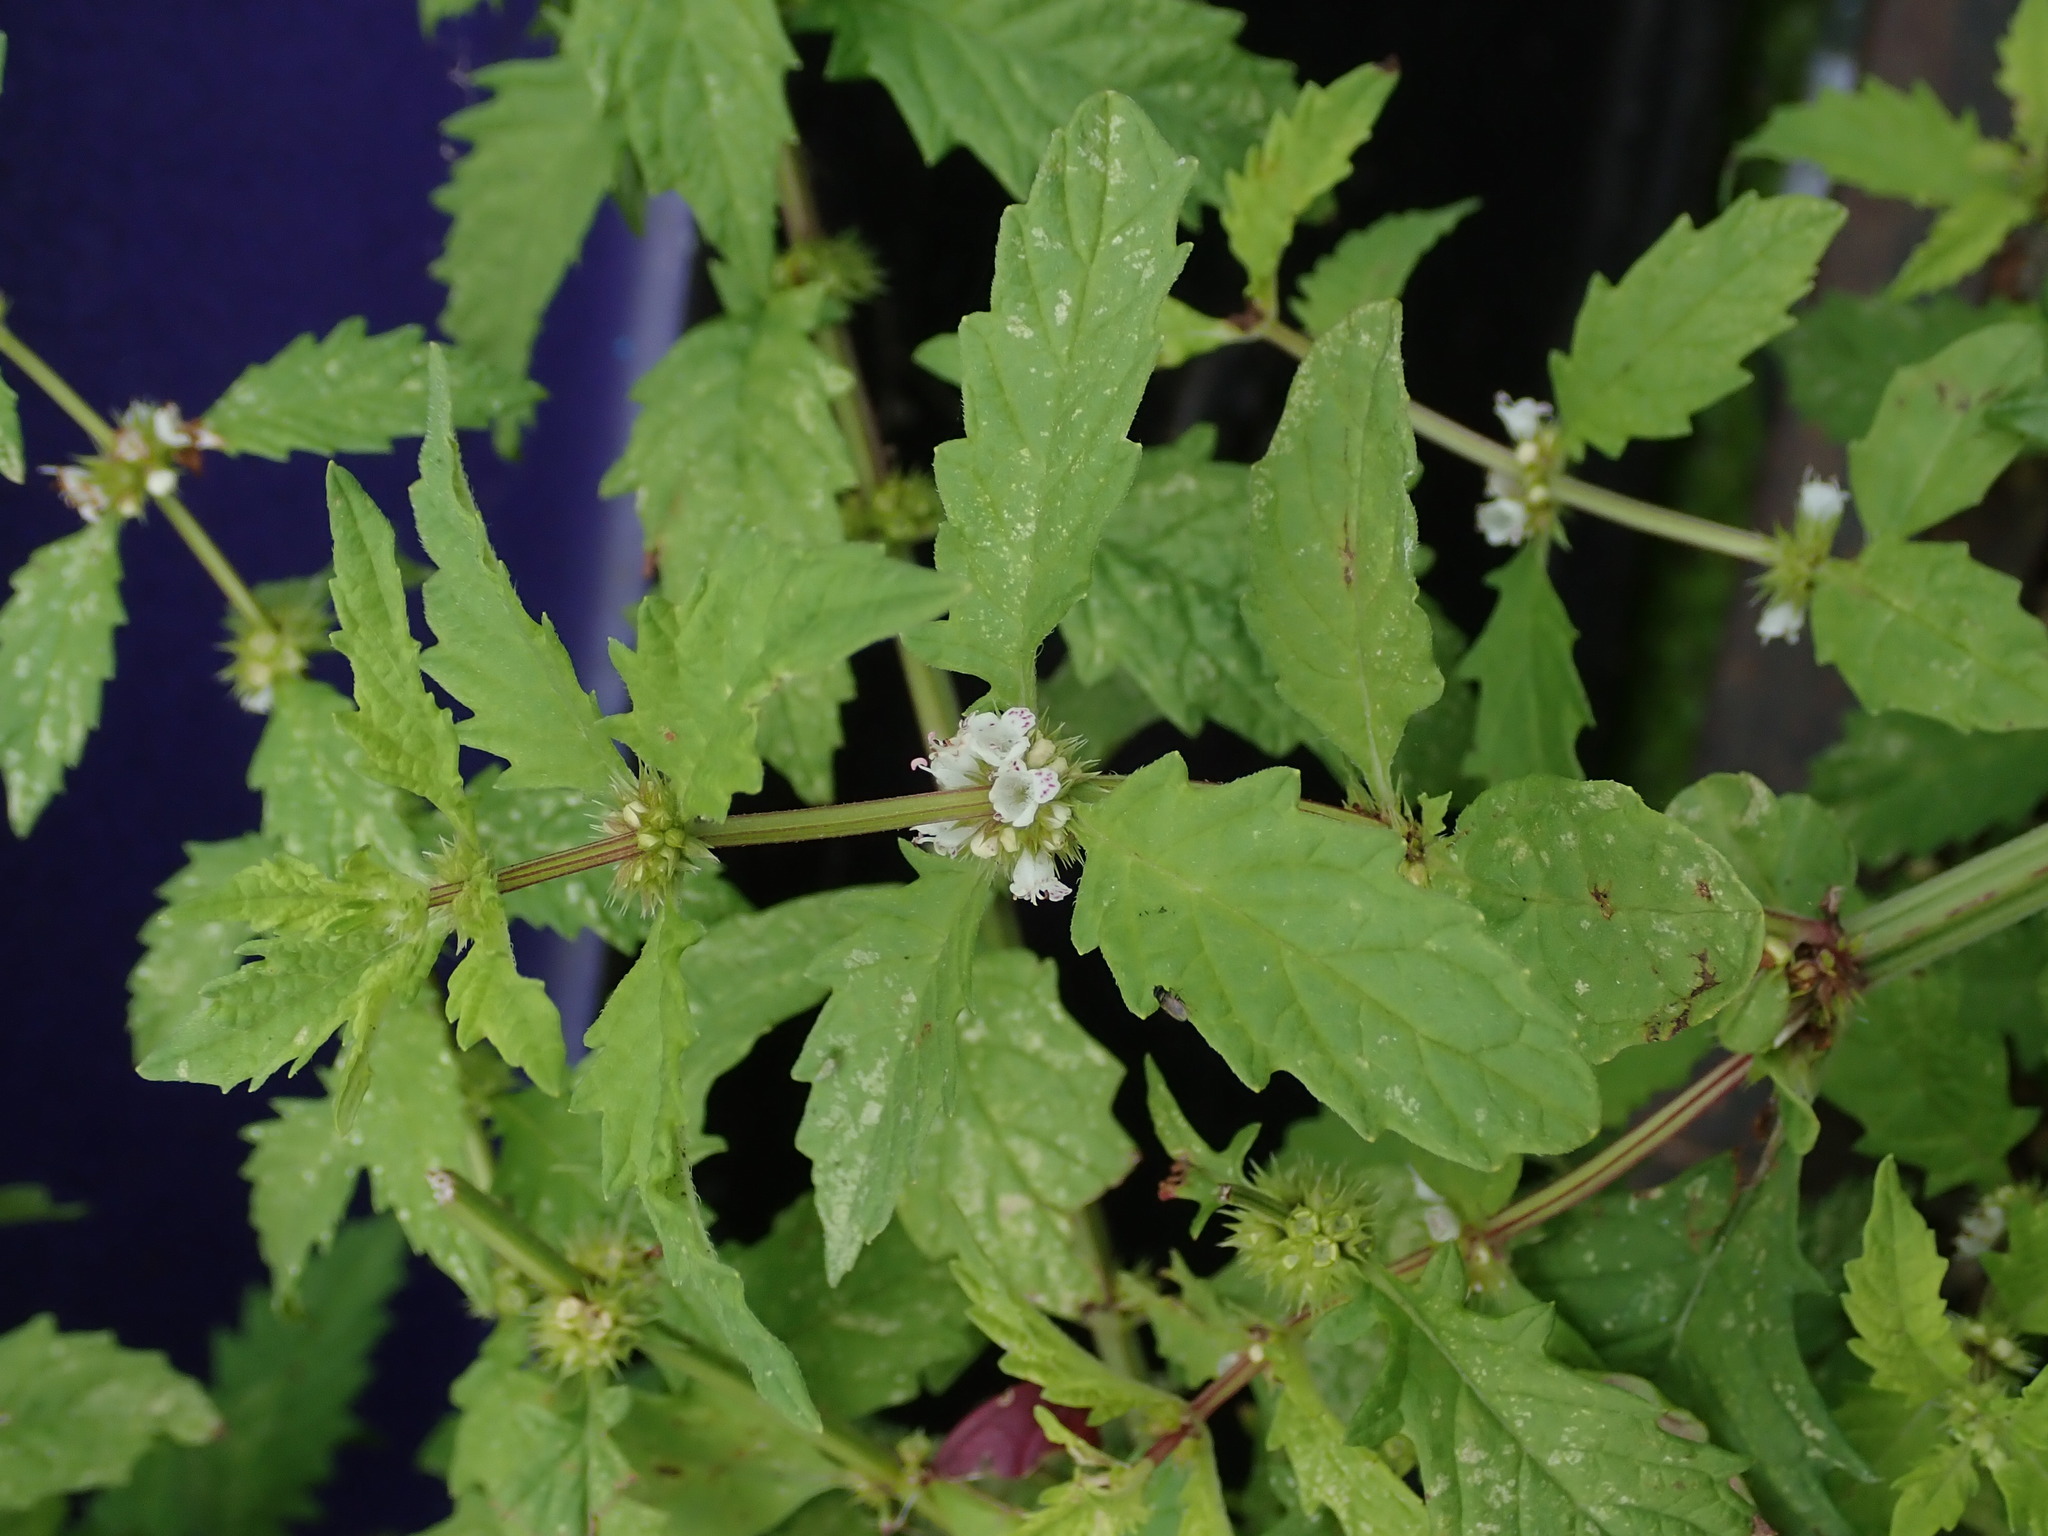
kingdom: Plantae
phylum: Tracheophyta
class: Magnoliopsida
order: Lamiales
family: Lamiaceae
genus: Lycopus
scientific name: Lycopus europaeus
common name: European bugleweed
